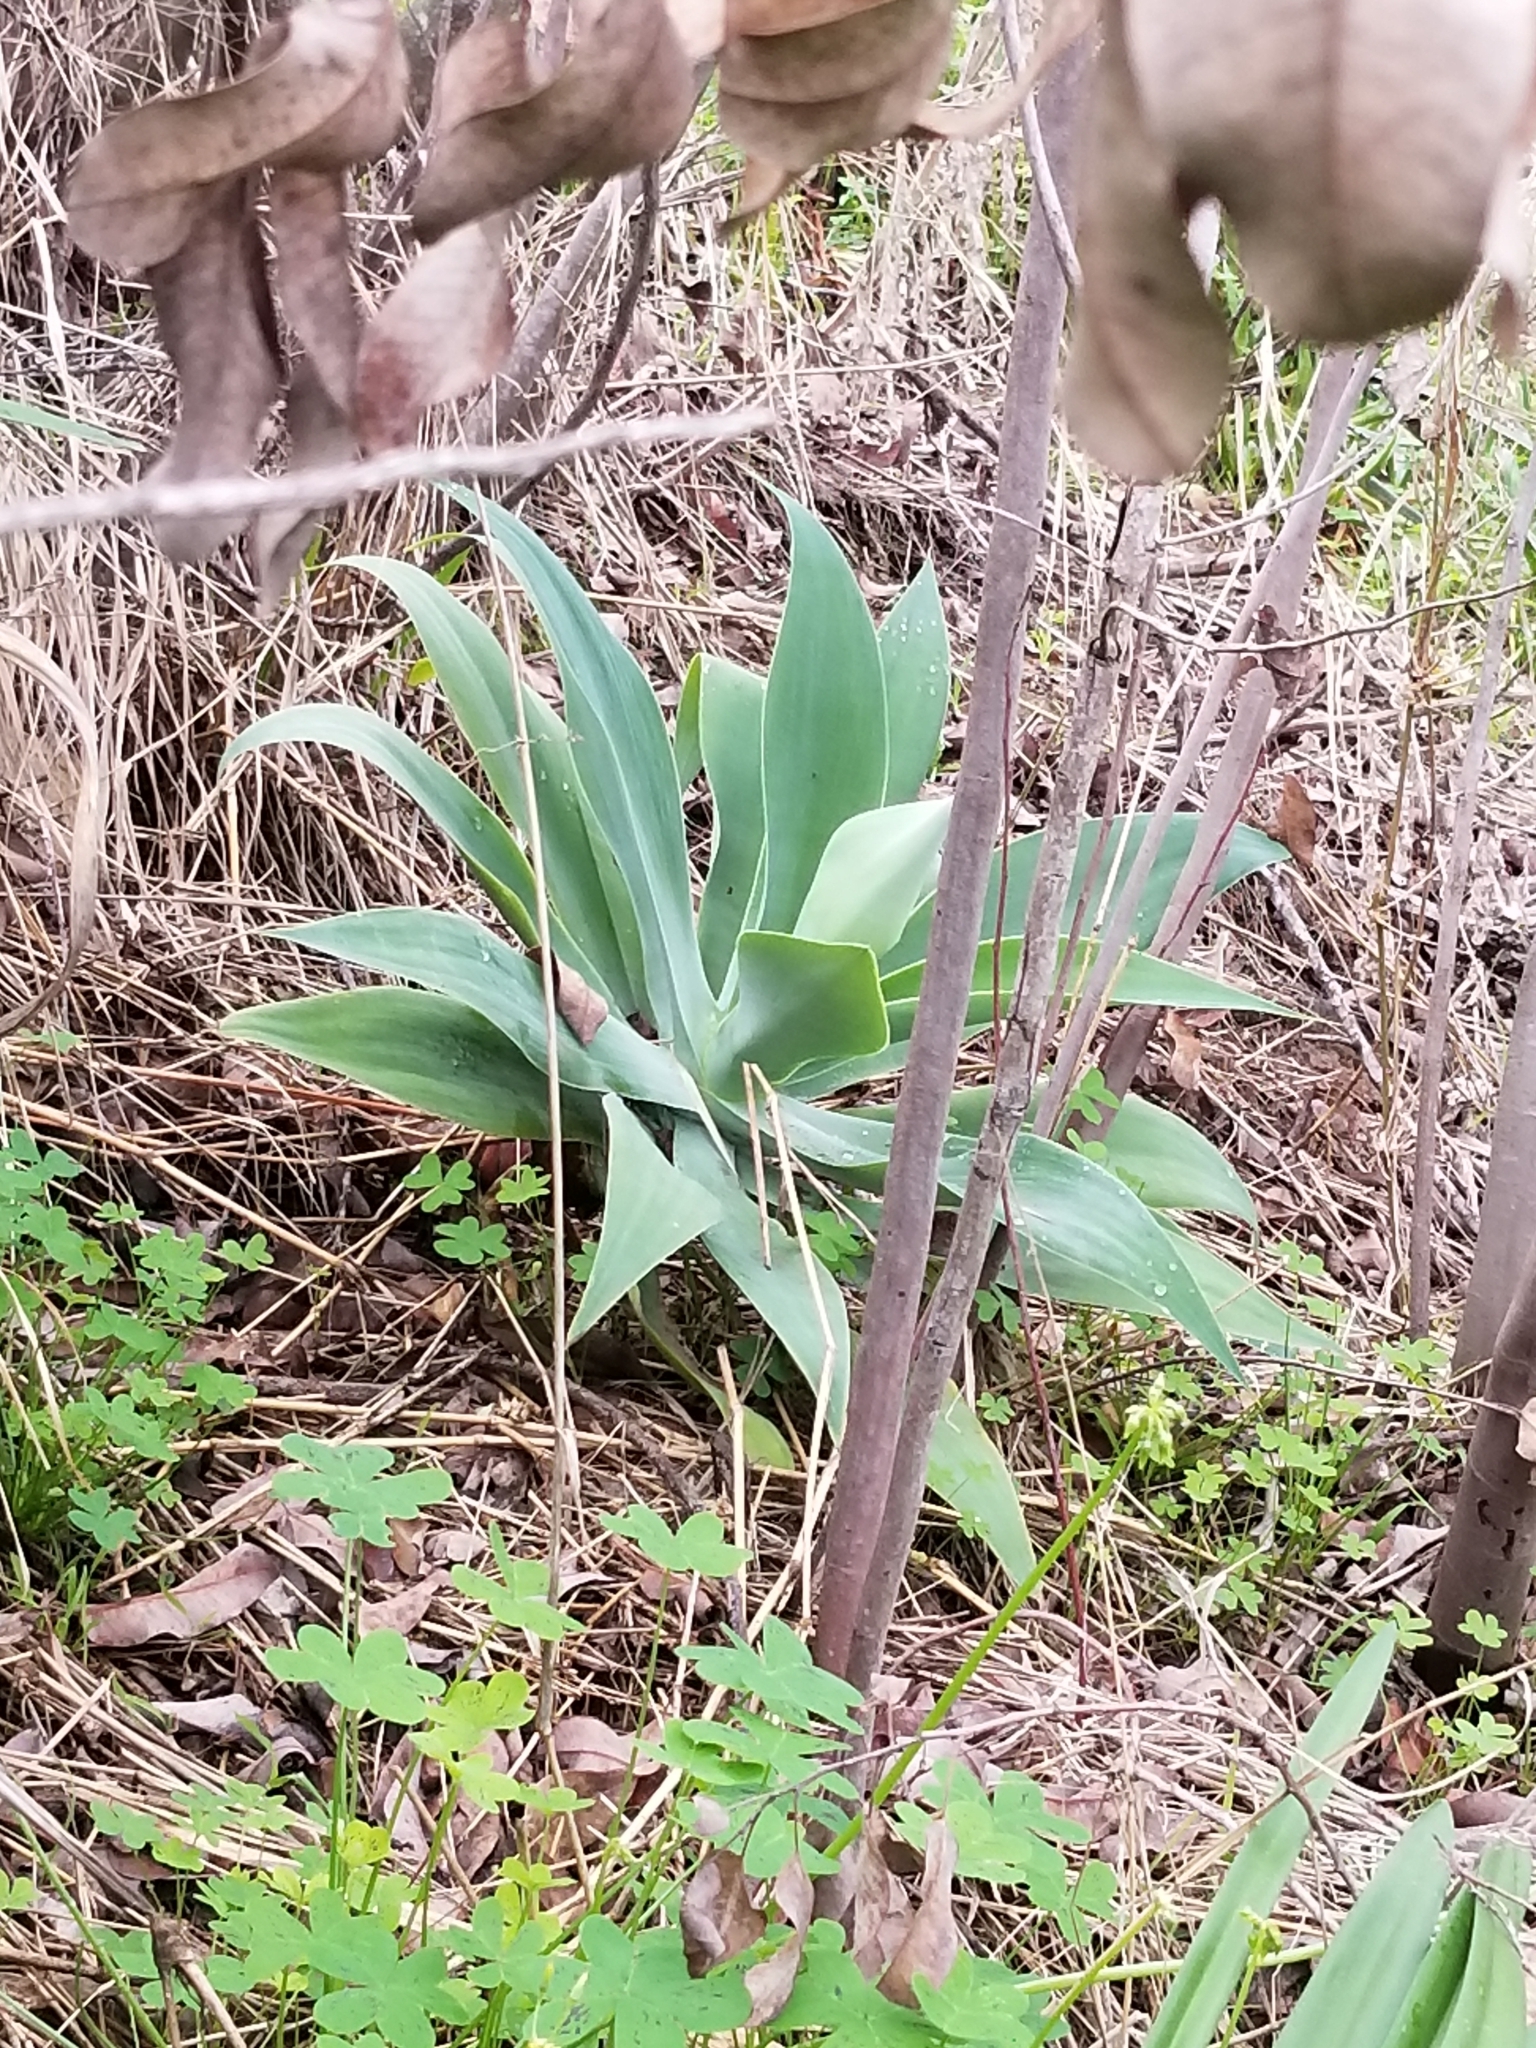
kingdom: Plantae
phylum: Tracheophyta
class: Liliopsida
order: Asparagales
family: Asparagaceae
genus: Agave
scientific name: Agave attenuata
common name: Fox tail agave
